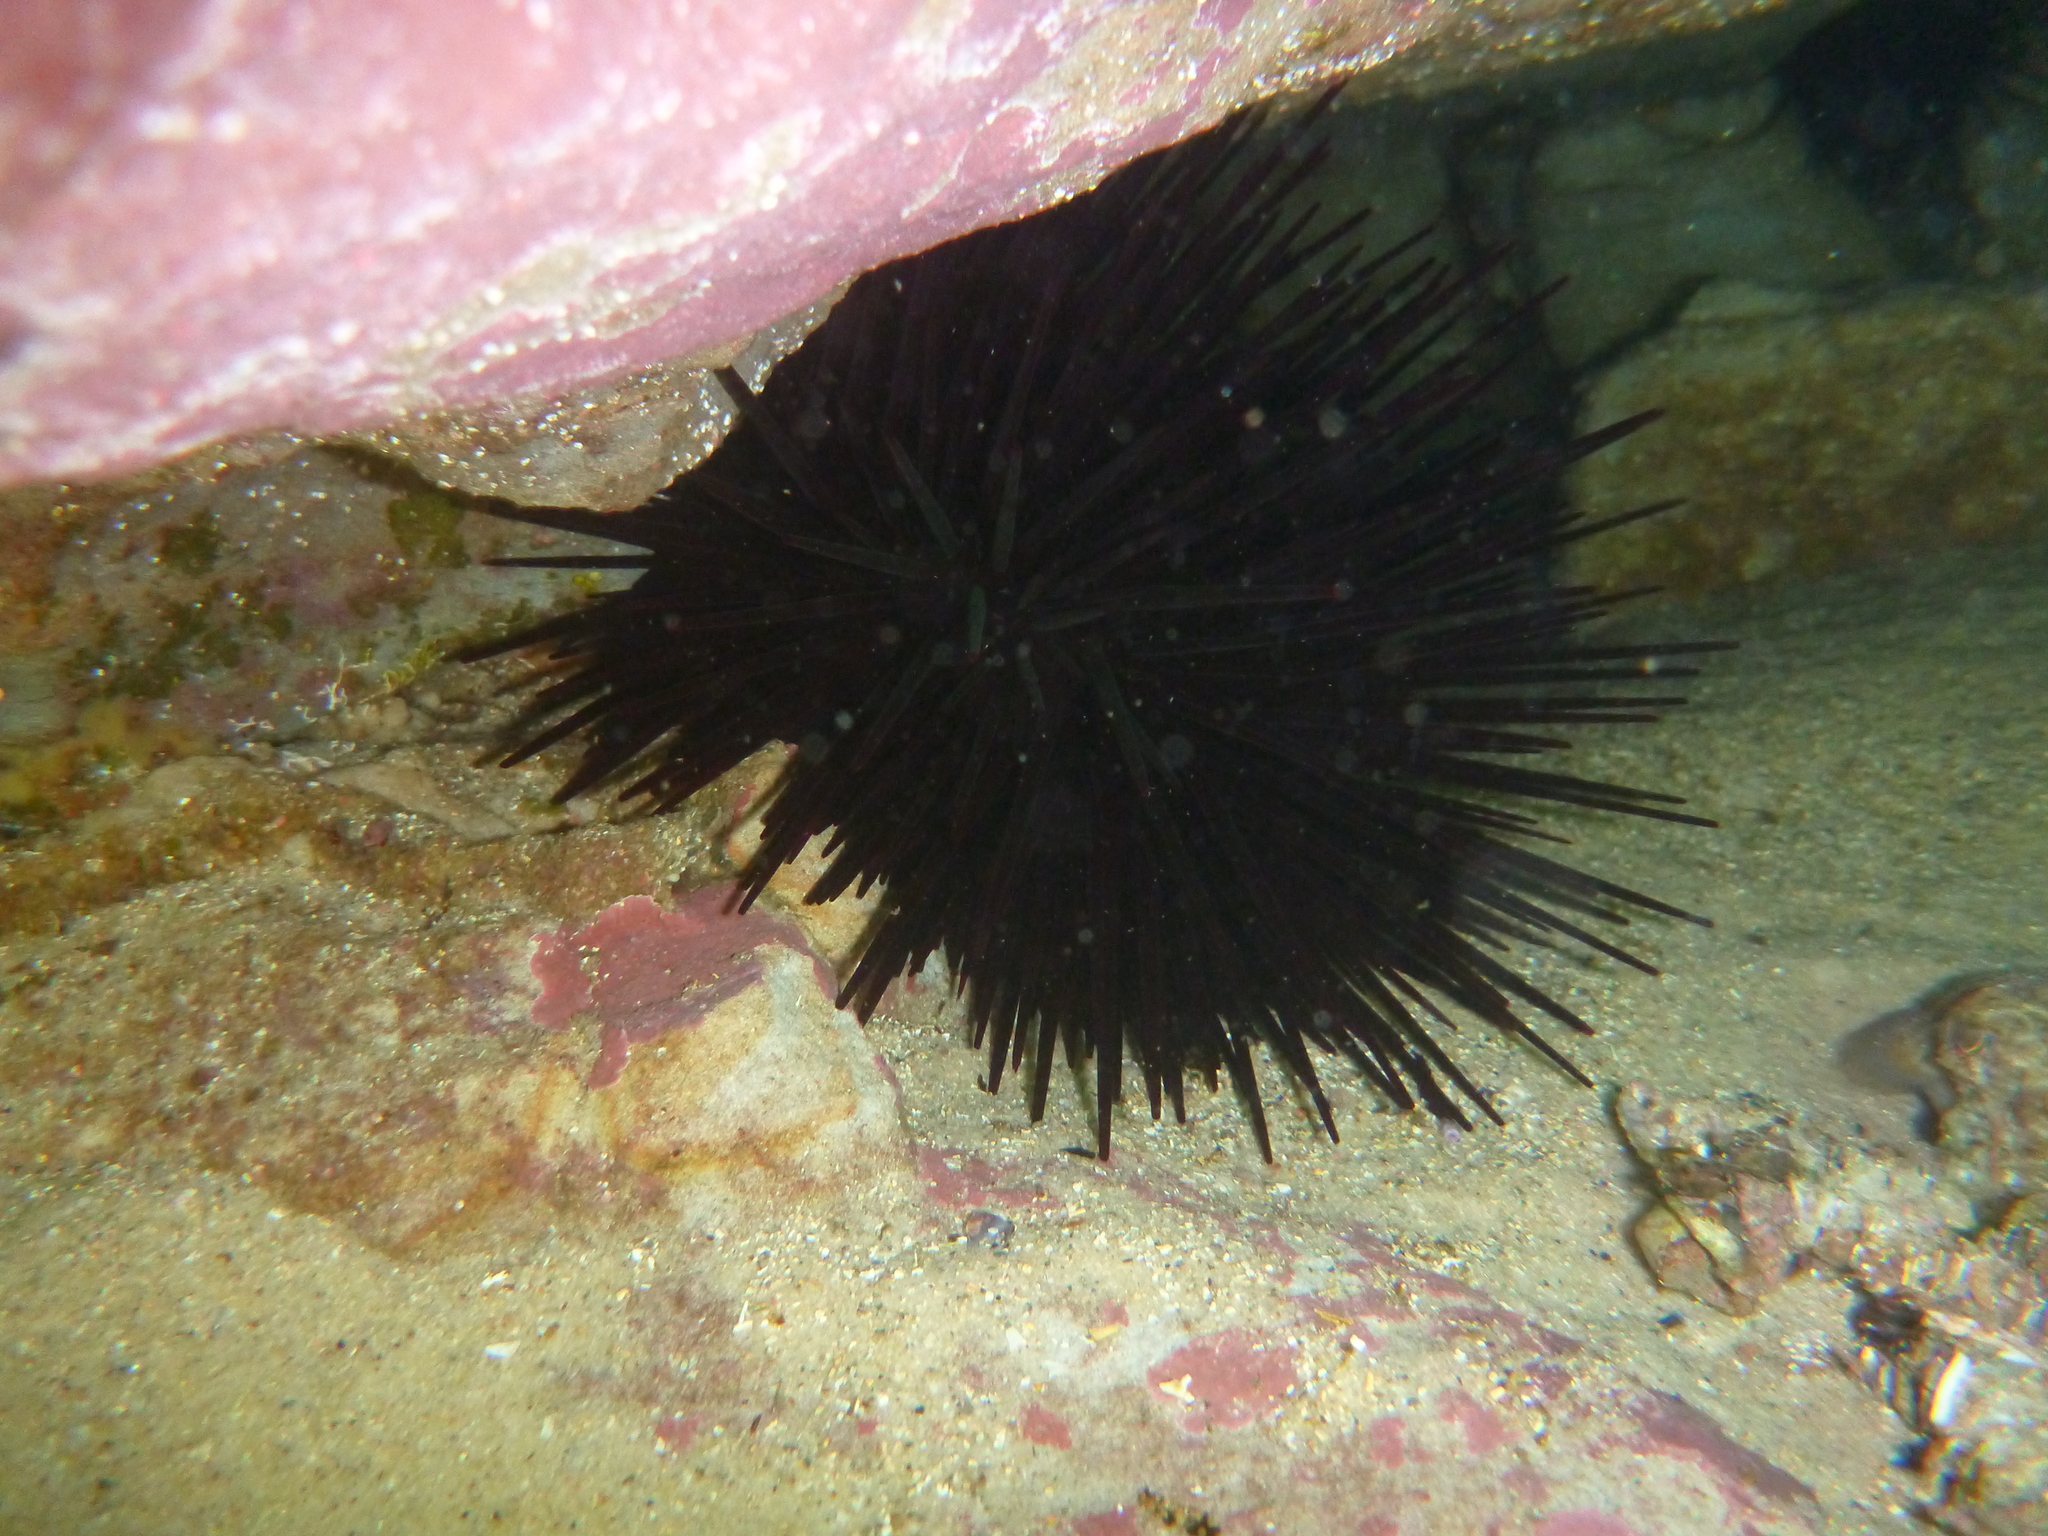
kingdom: Animalia
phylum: Echinodermata
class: Echinoidea
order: Diadematoida
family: Diadematidae
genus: Centrostephanus
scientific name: Centrostephanus rodgersii
